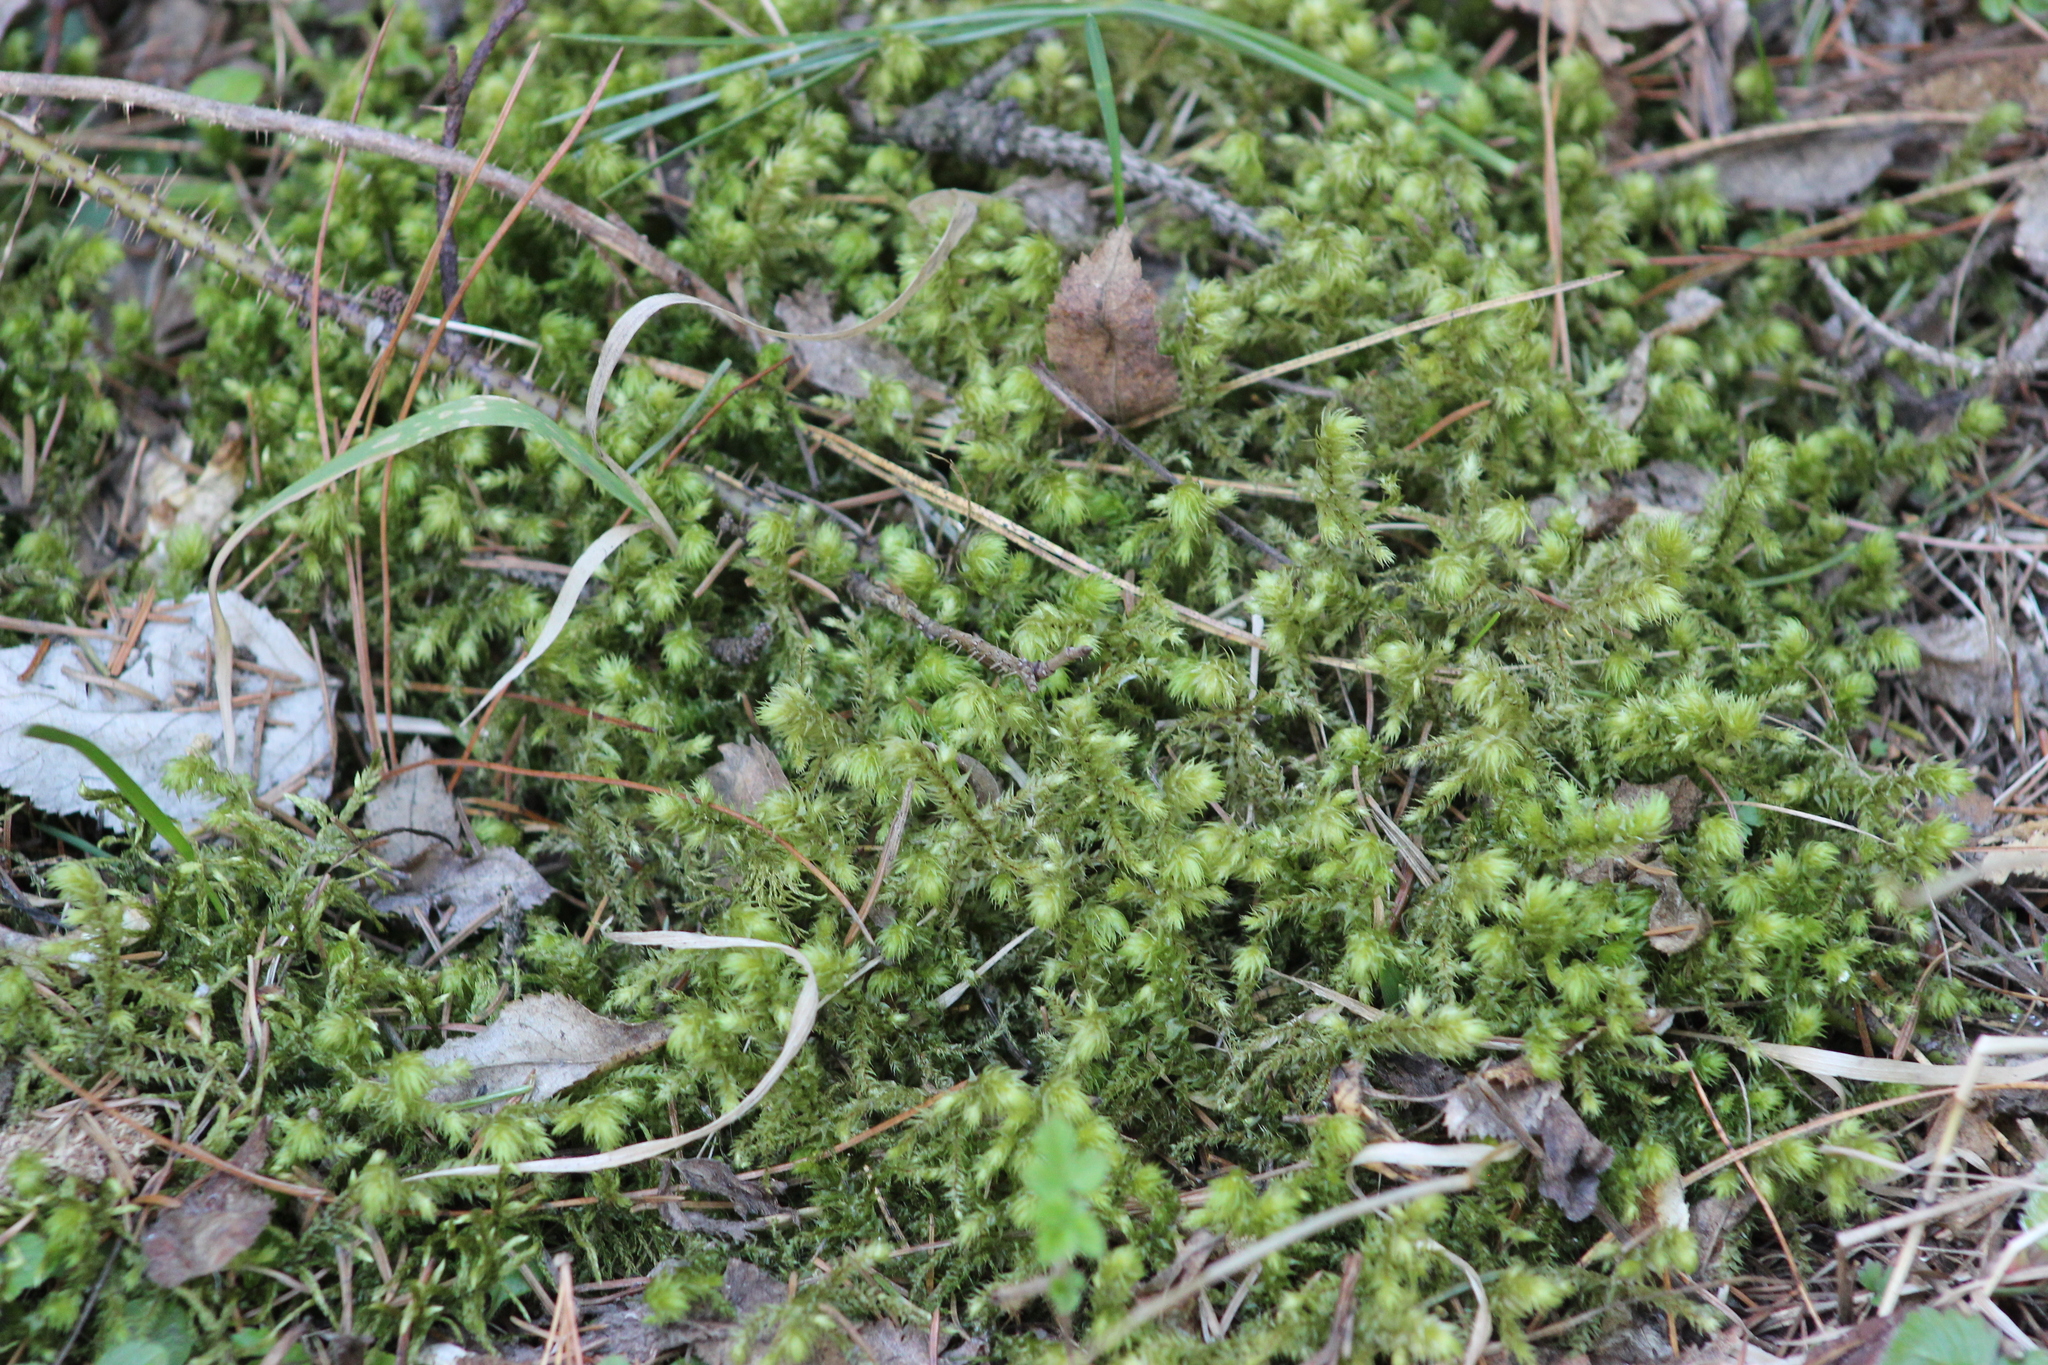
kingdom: Plantae
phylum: Bryophyta
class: Bryopsida
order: Hypnales
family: Hylocomiaceae
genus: Hylocomiadelphus
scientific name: Hylocomiadelphus triquetrus
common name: Rough goose neck moss
